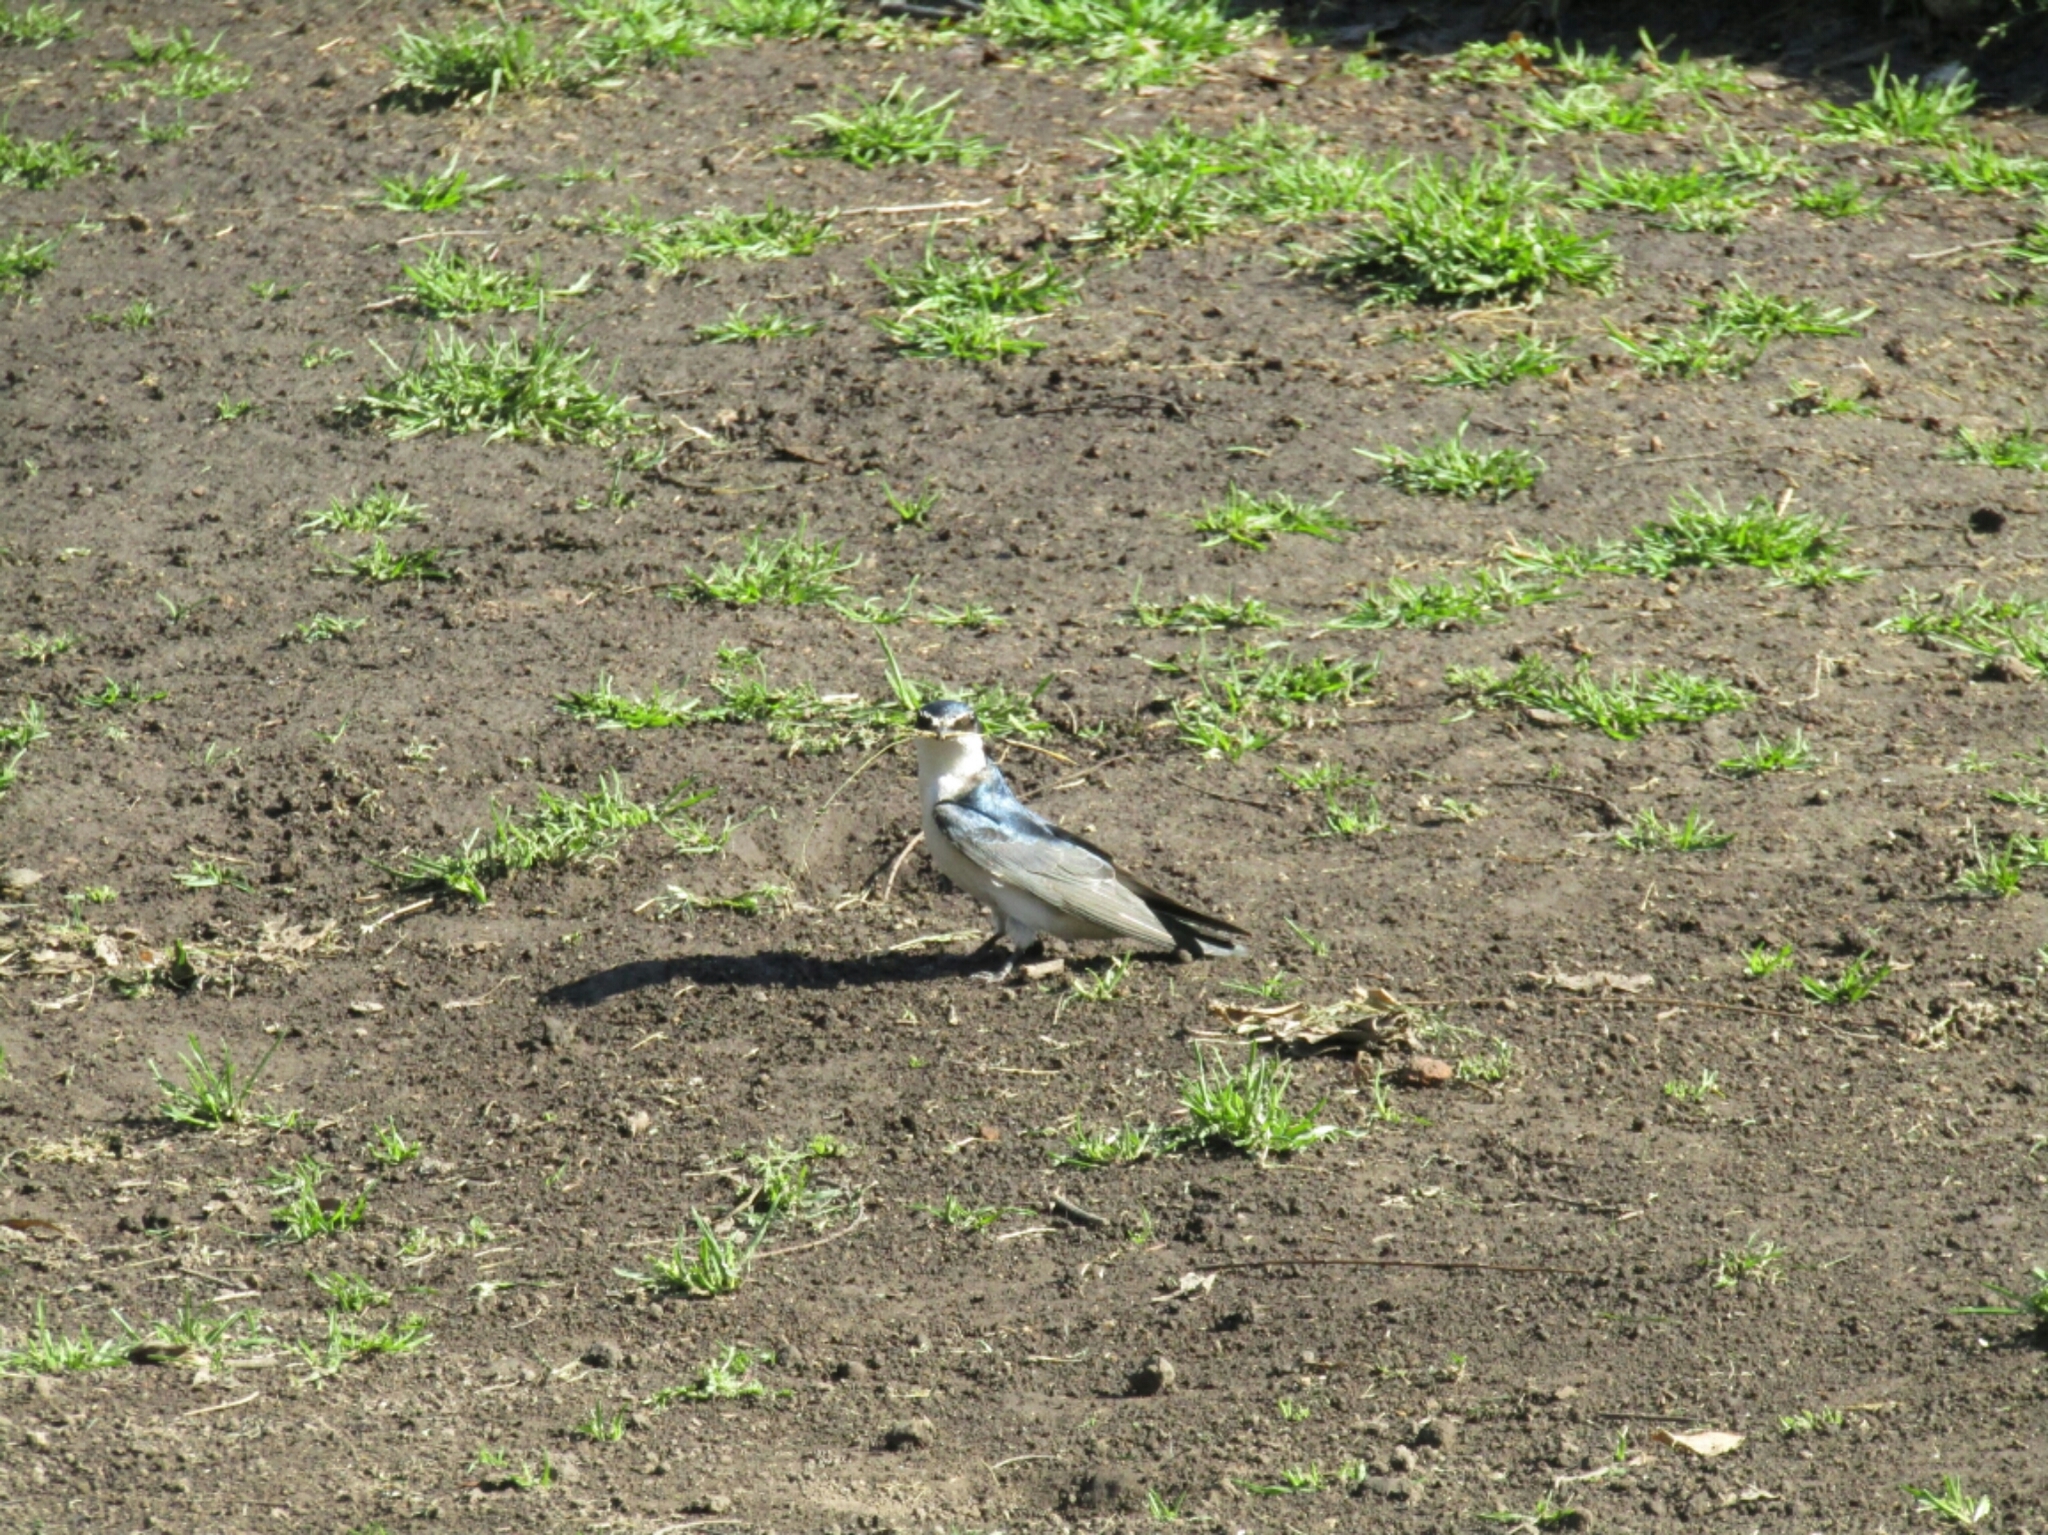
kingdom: Animalia
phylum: Chordata
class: Aves
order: Passeriformes
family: Hirundinidae
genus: Tachycineta
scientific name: Tachycineta leucorrhoa
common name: White-rumped swallow
